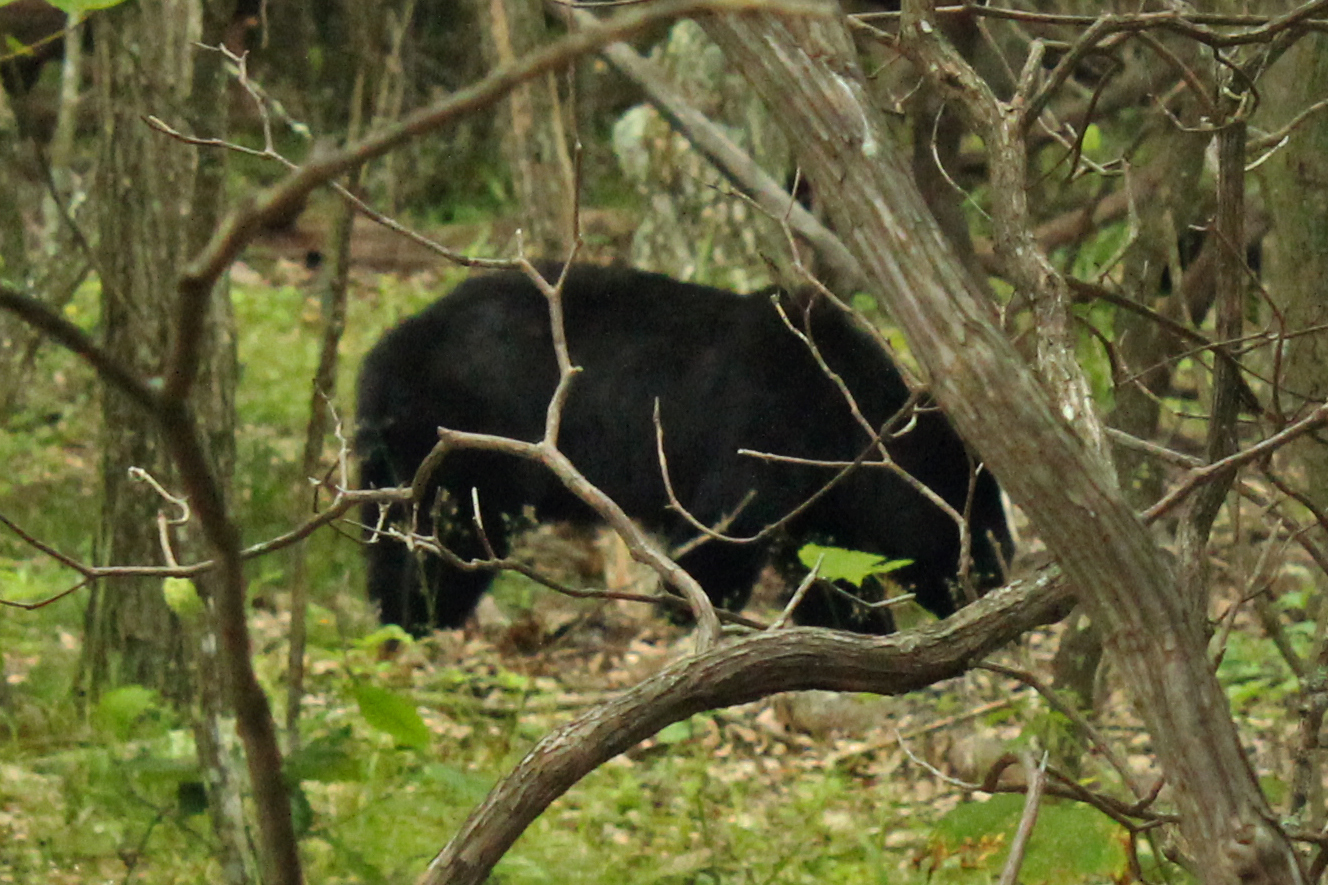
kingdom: Animalia
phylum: Chordata
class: Mammalia
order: Carnivora
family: Ursidae
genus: Ursus
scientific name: Ursus americanus
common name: American black bear
